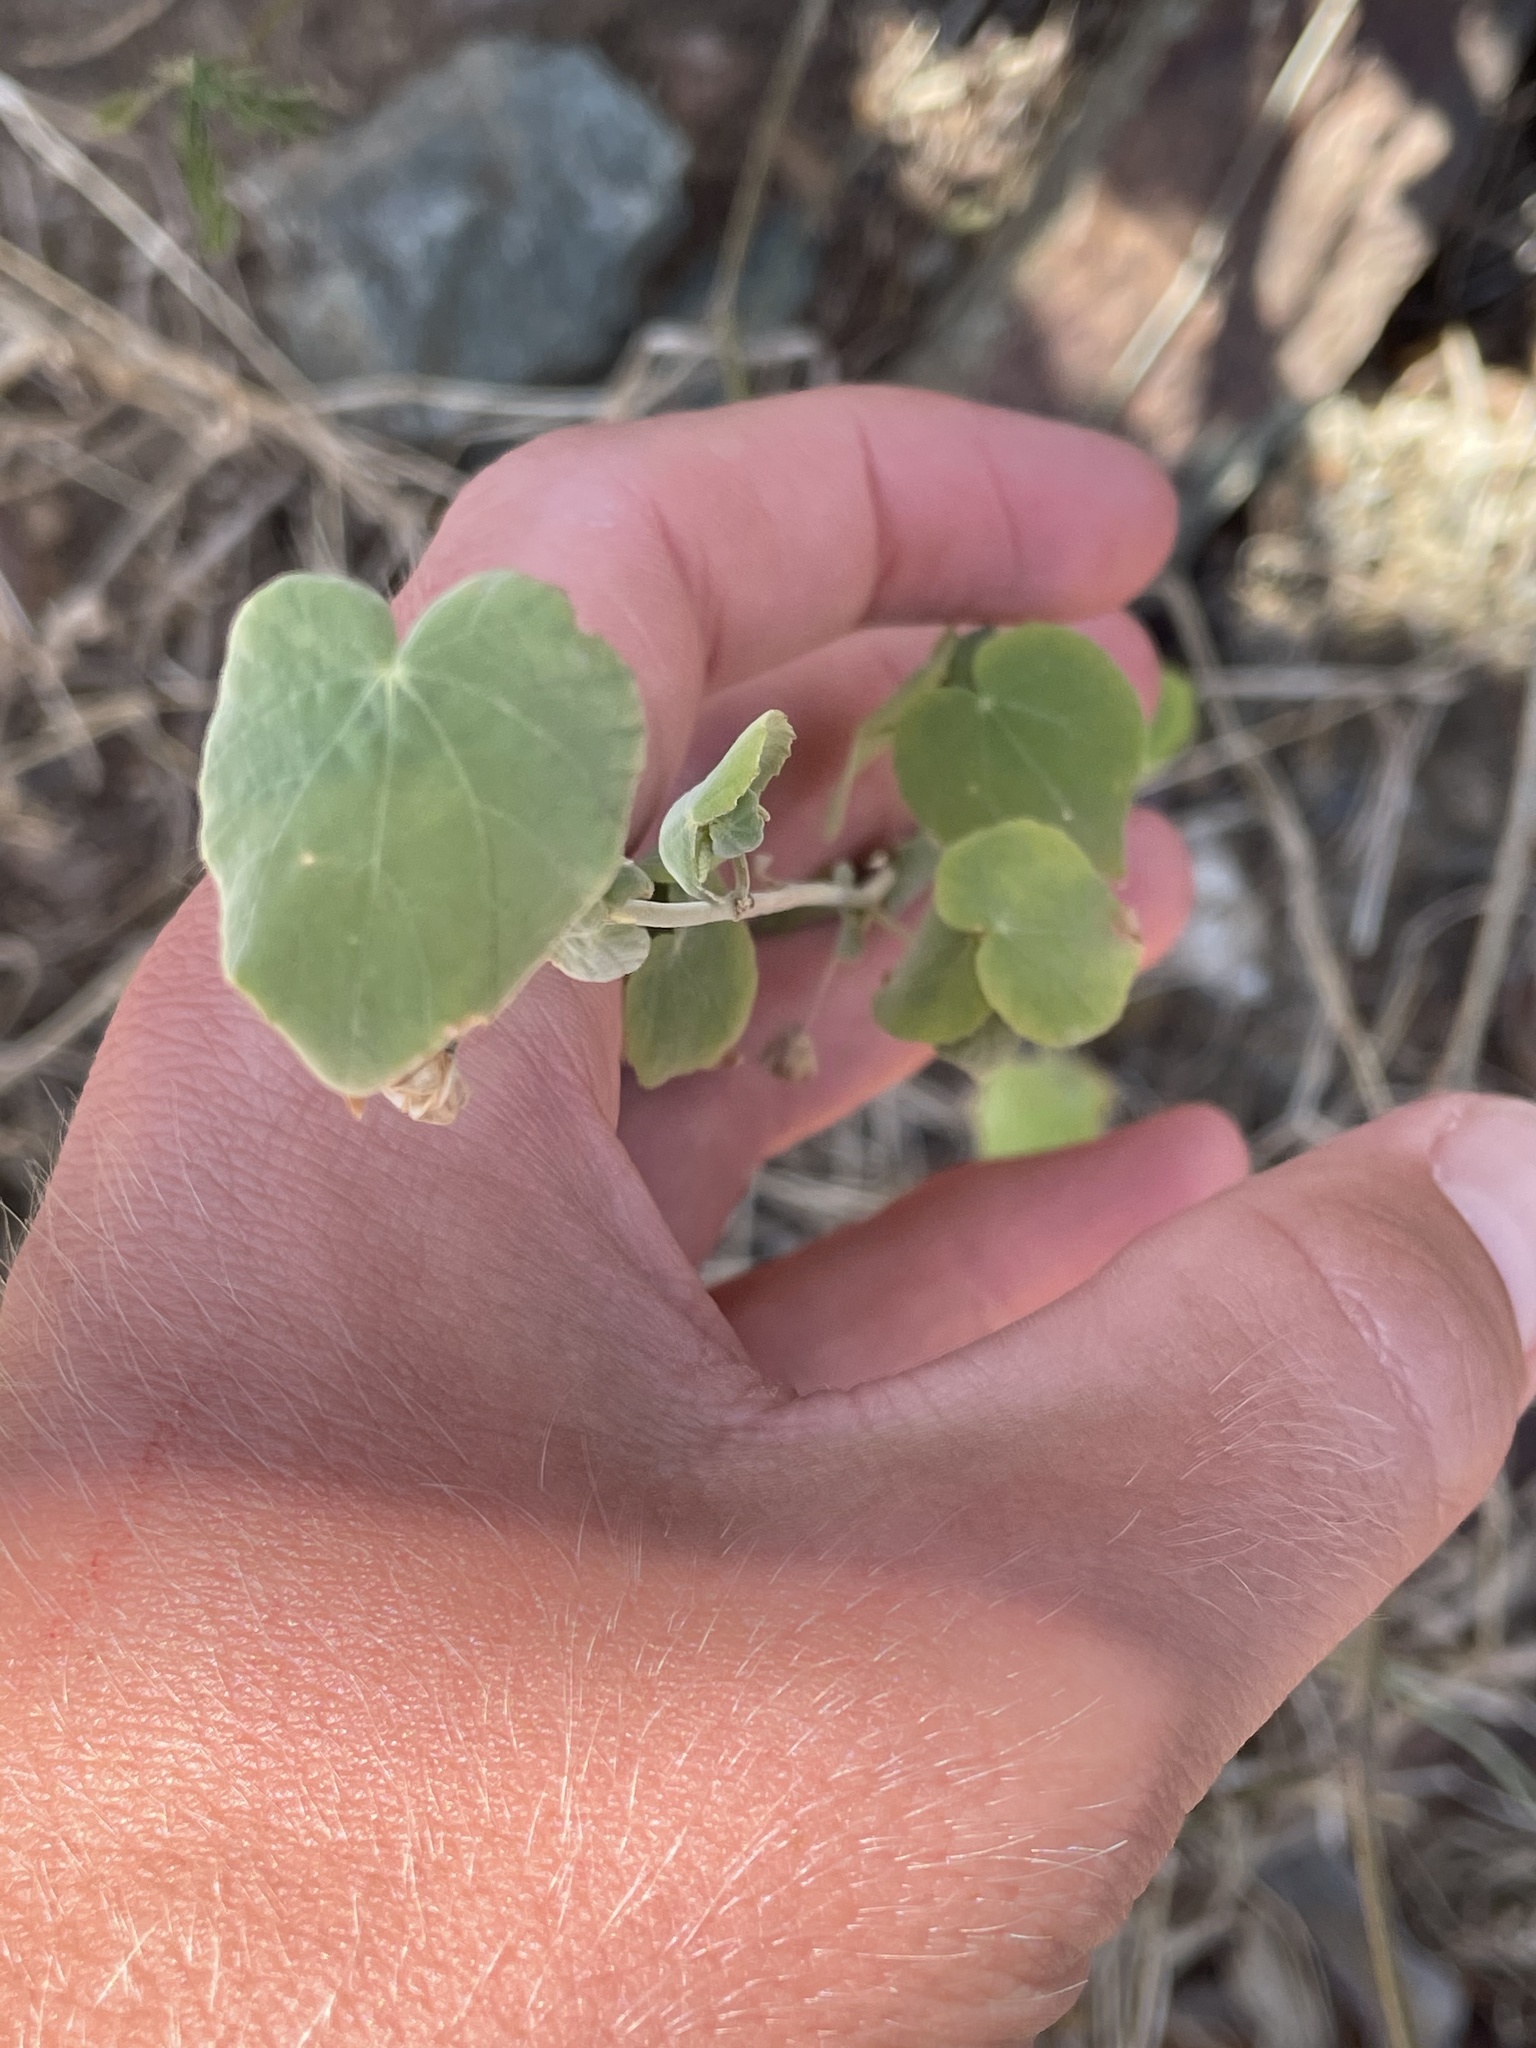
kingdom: Plantae
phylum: Tracheophyta
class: Magnoliopsida
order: Malvales
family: Malvaceae
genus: Abutilon
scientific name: Abutilon viscosum
